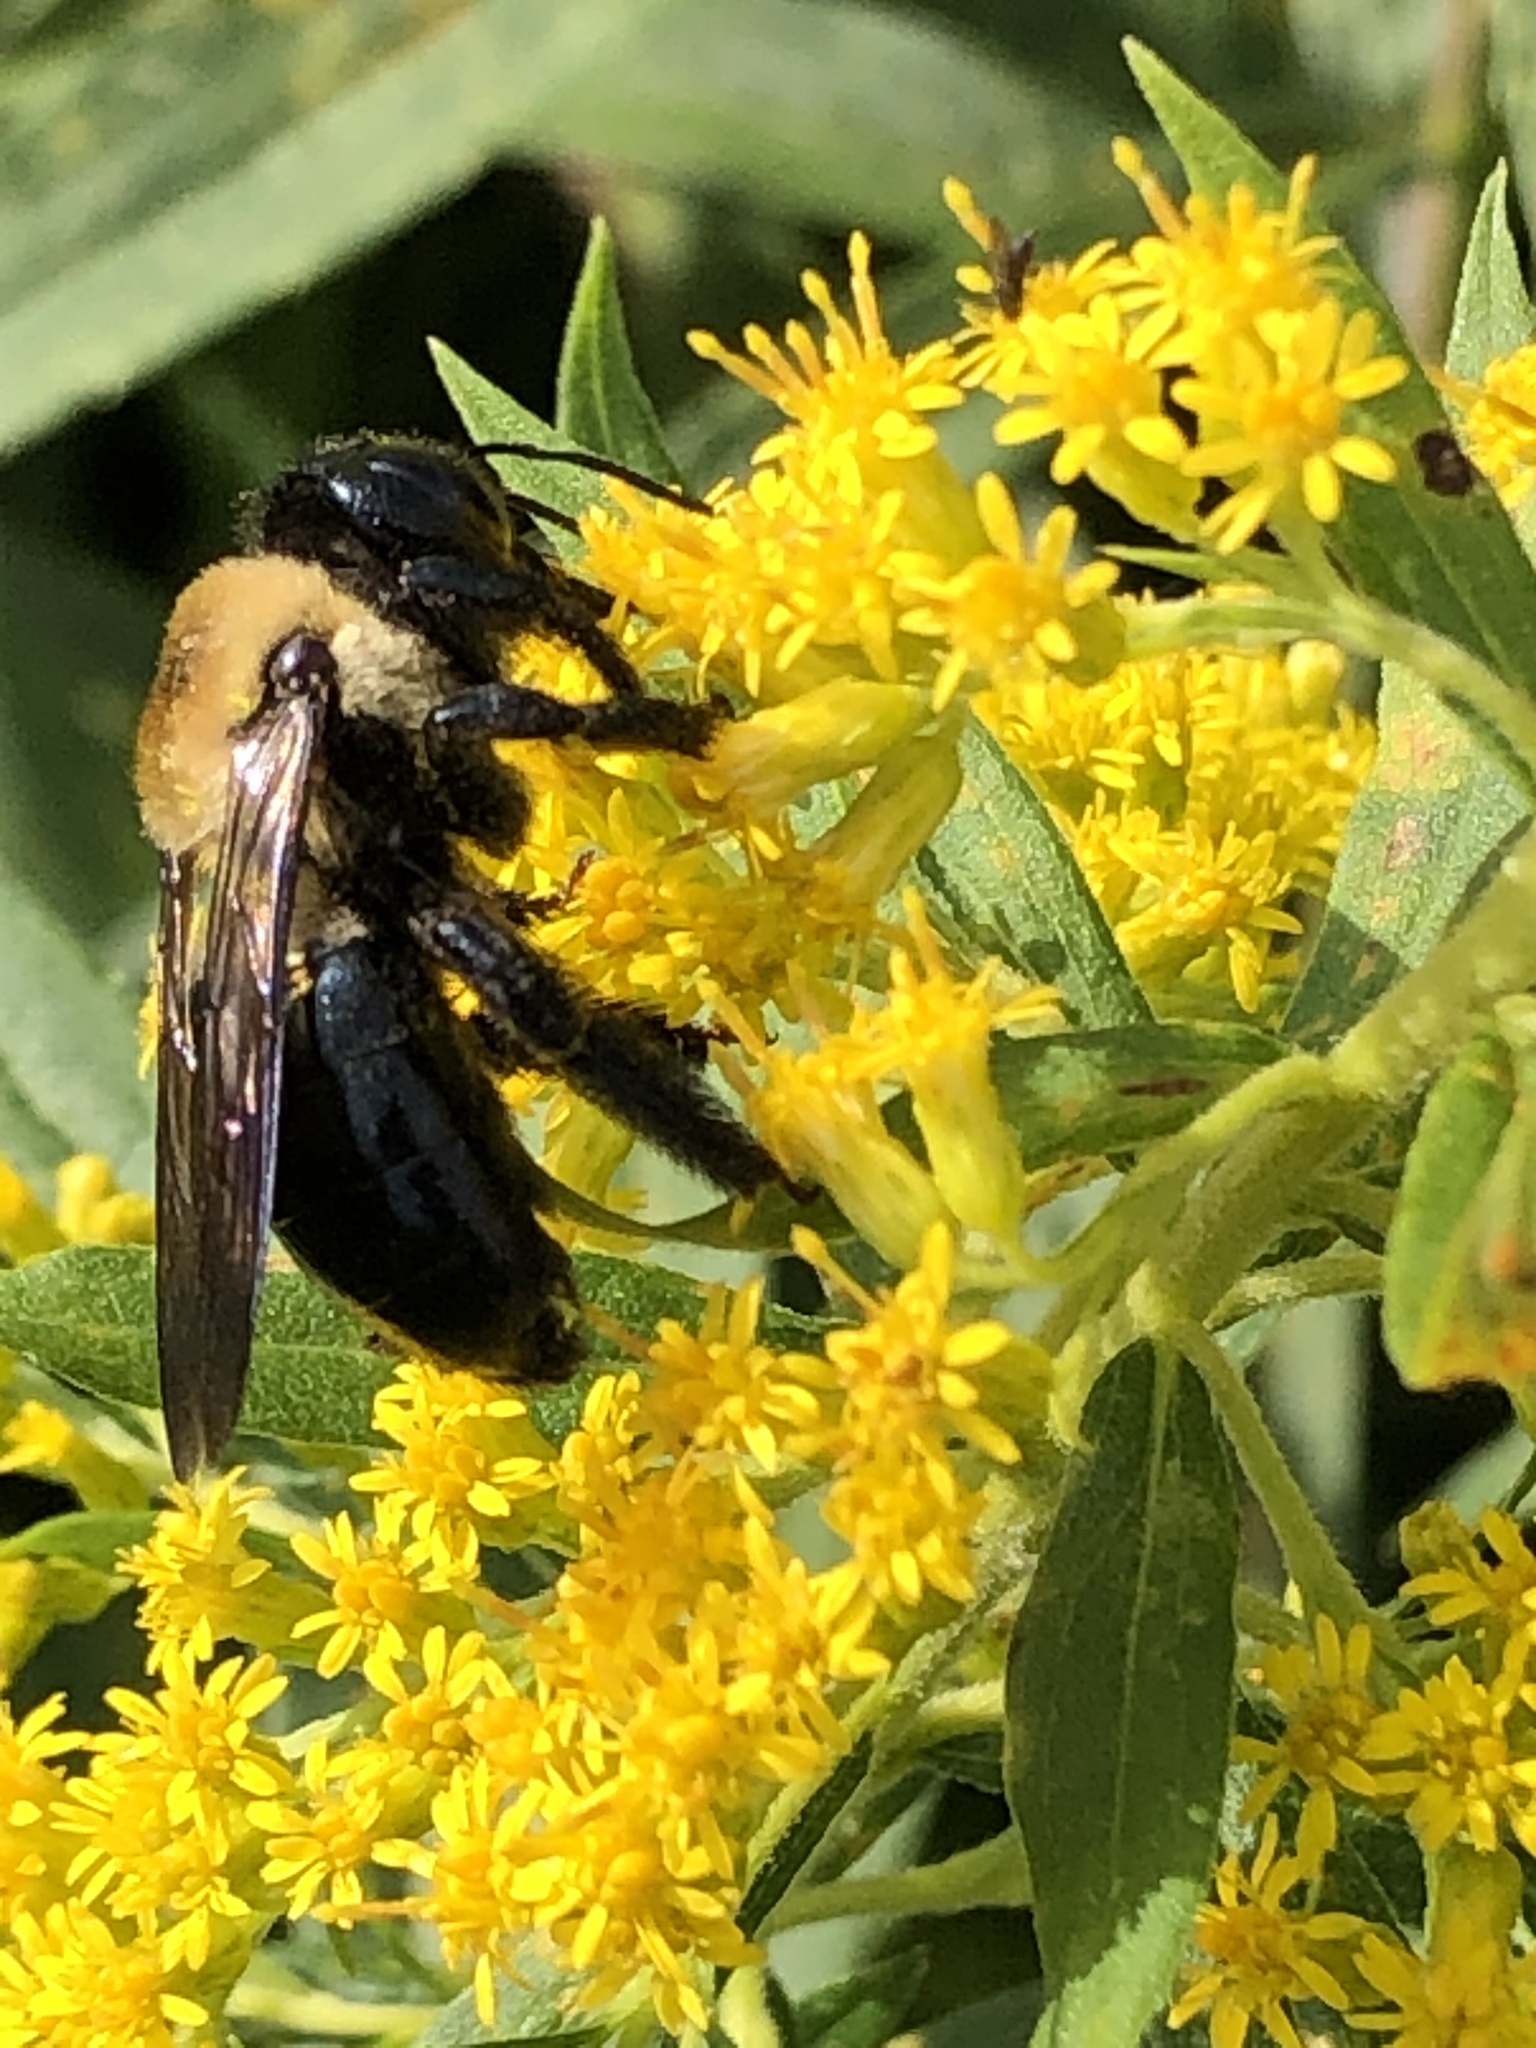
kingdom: Animalia
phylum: Arthropoda
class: Insecta
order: Hymenoptera
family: Apidae
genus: Xylocopa
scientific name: Xylocopa virginica
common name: Carpenter bee
